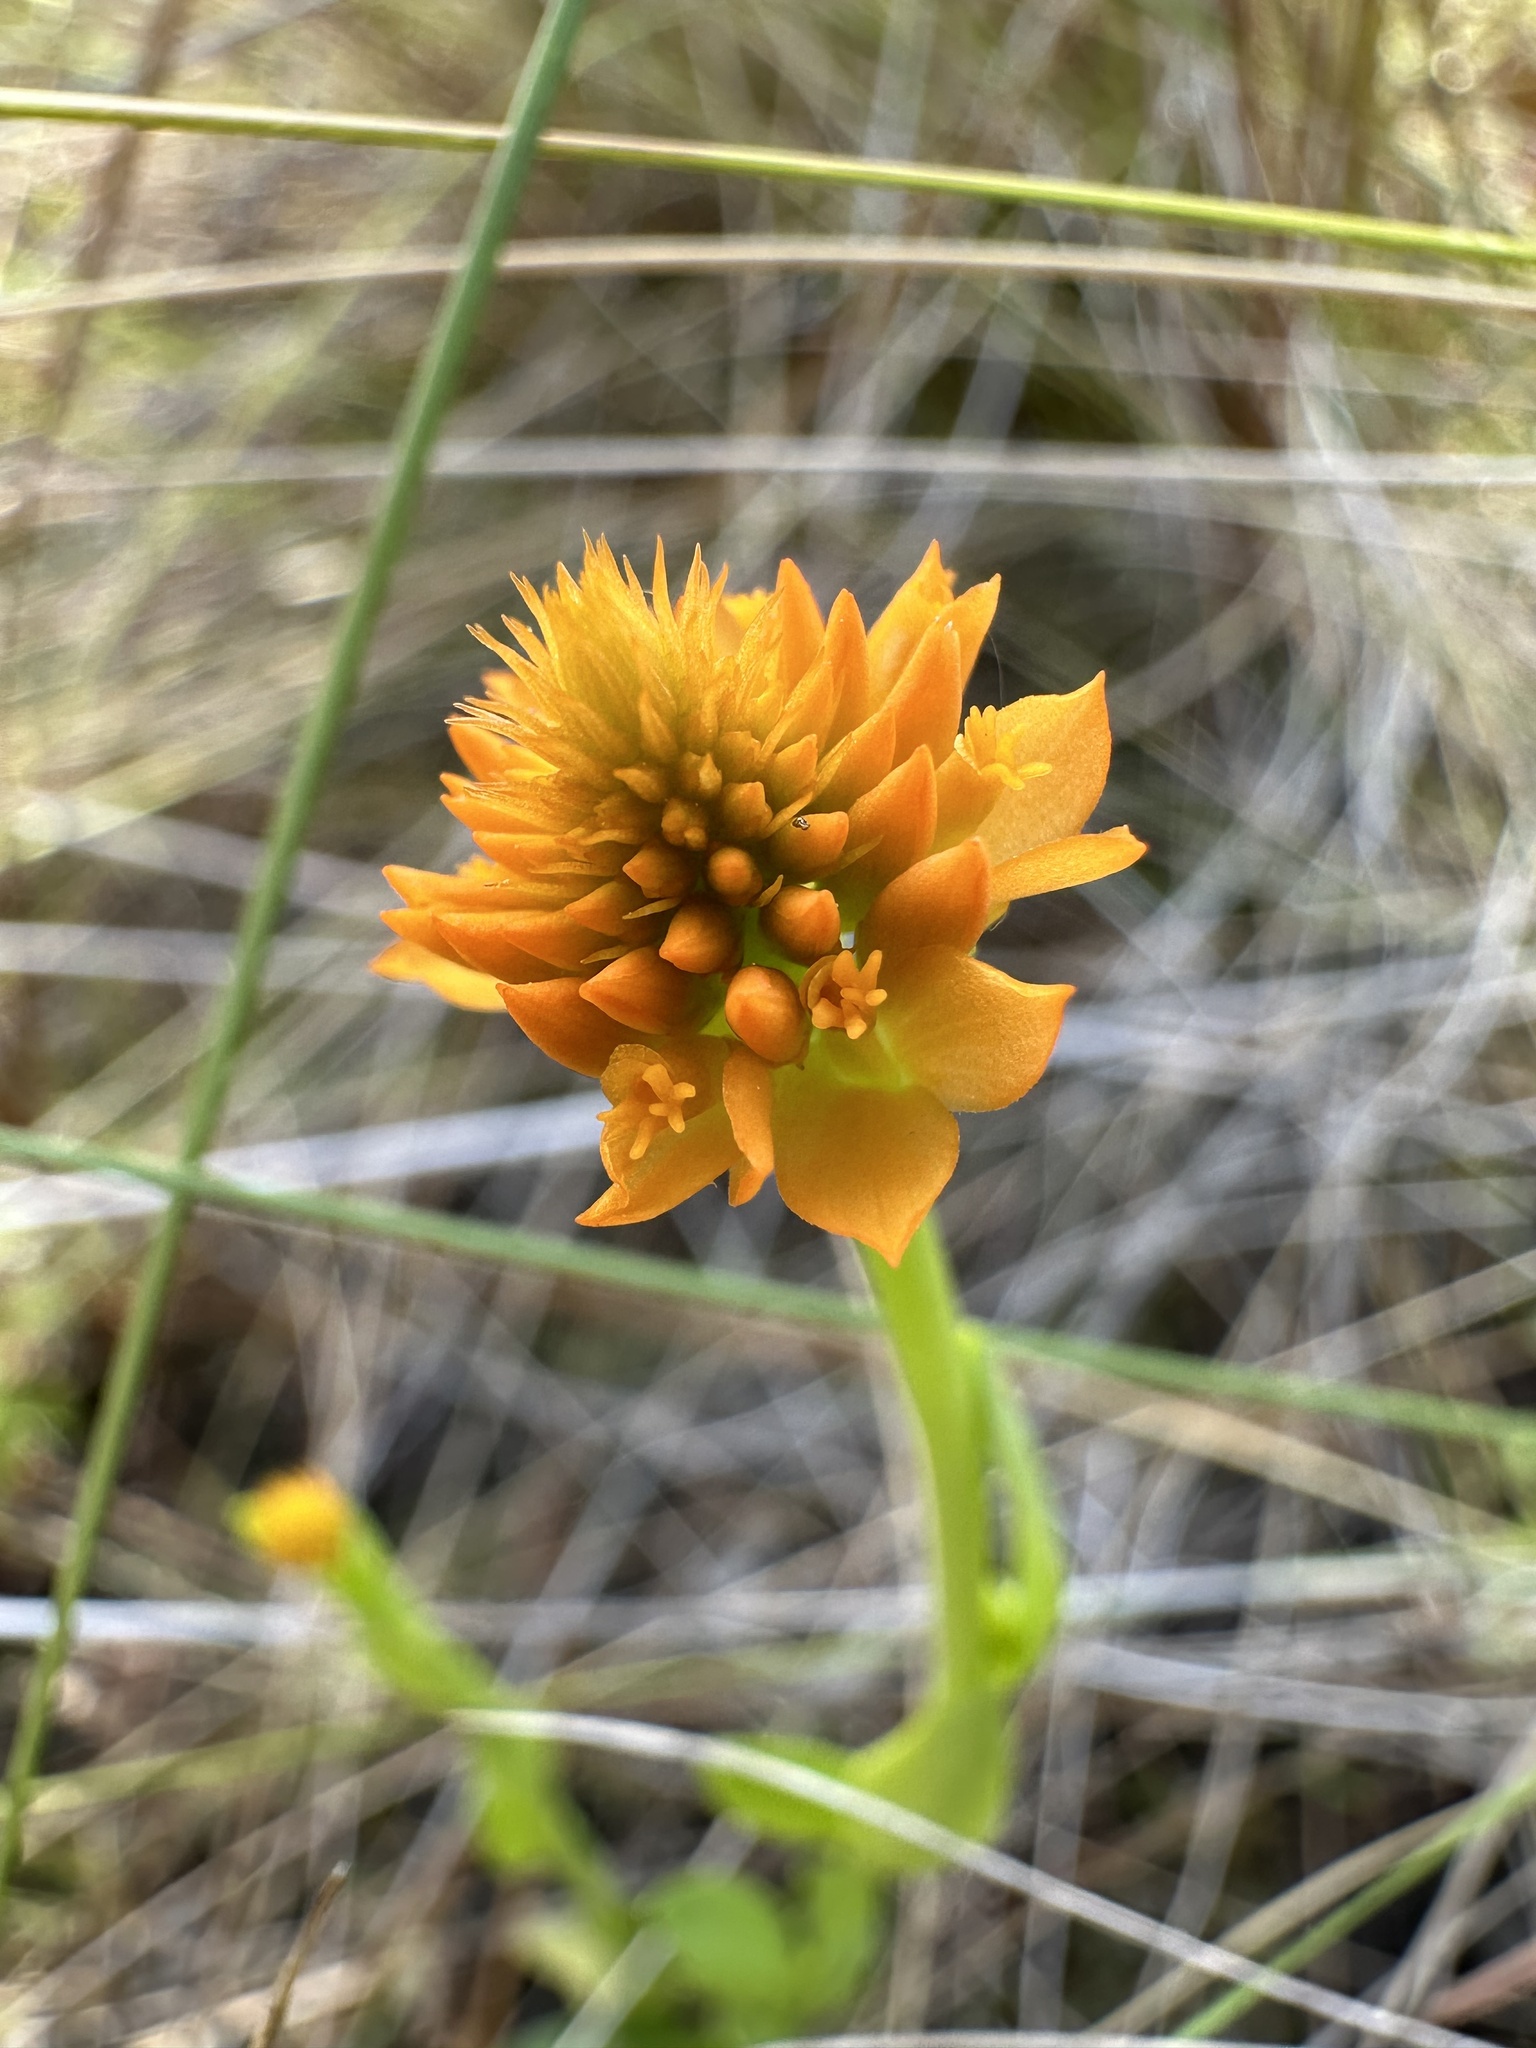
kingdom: Plantae
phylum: Tracheophyta
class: Magnoliopsida
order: Fabales
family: Polygalaceae
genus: Polygala
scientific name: Polygala lutea
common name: Orange milkwort
